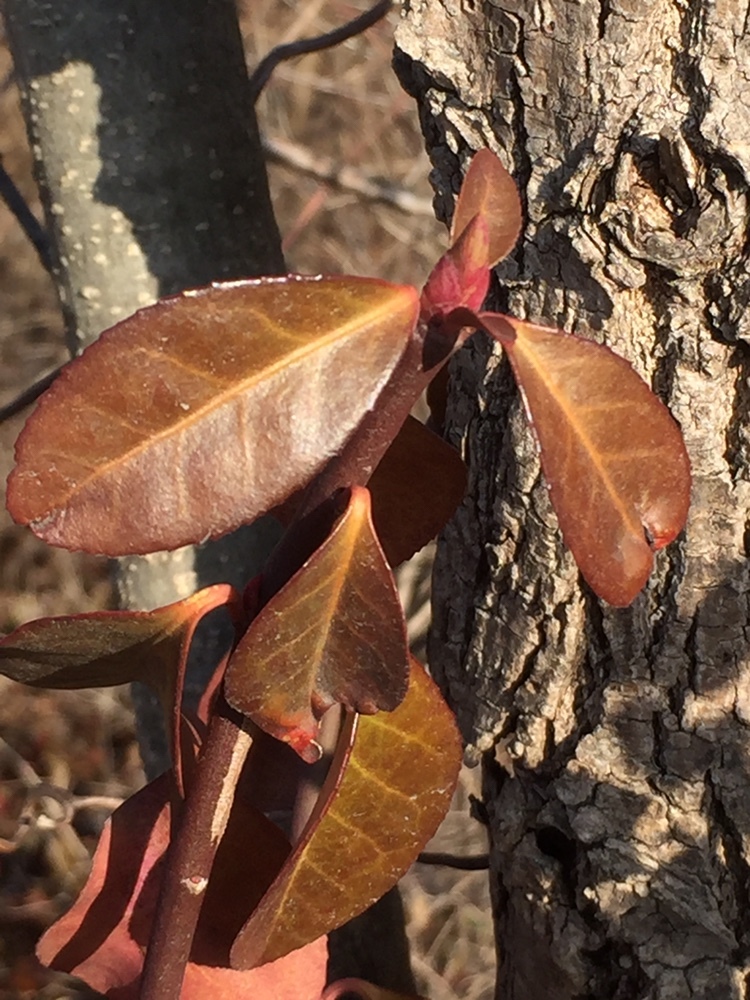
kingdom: Plantae
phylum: Tracheophyta
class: Magnoliopsida
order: Celastrales
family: Celastraceae
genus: Euonymus
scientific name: Euonymus fortunei
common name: Climbing euonymus
